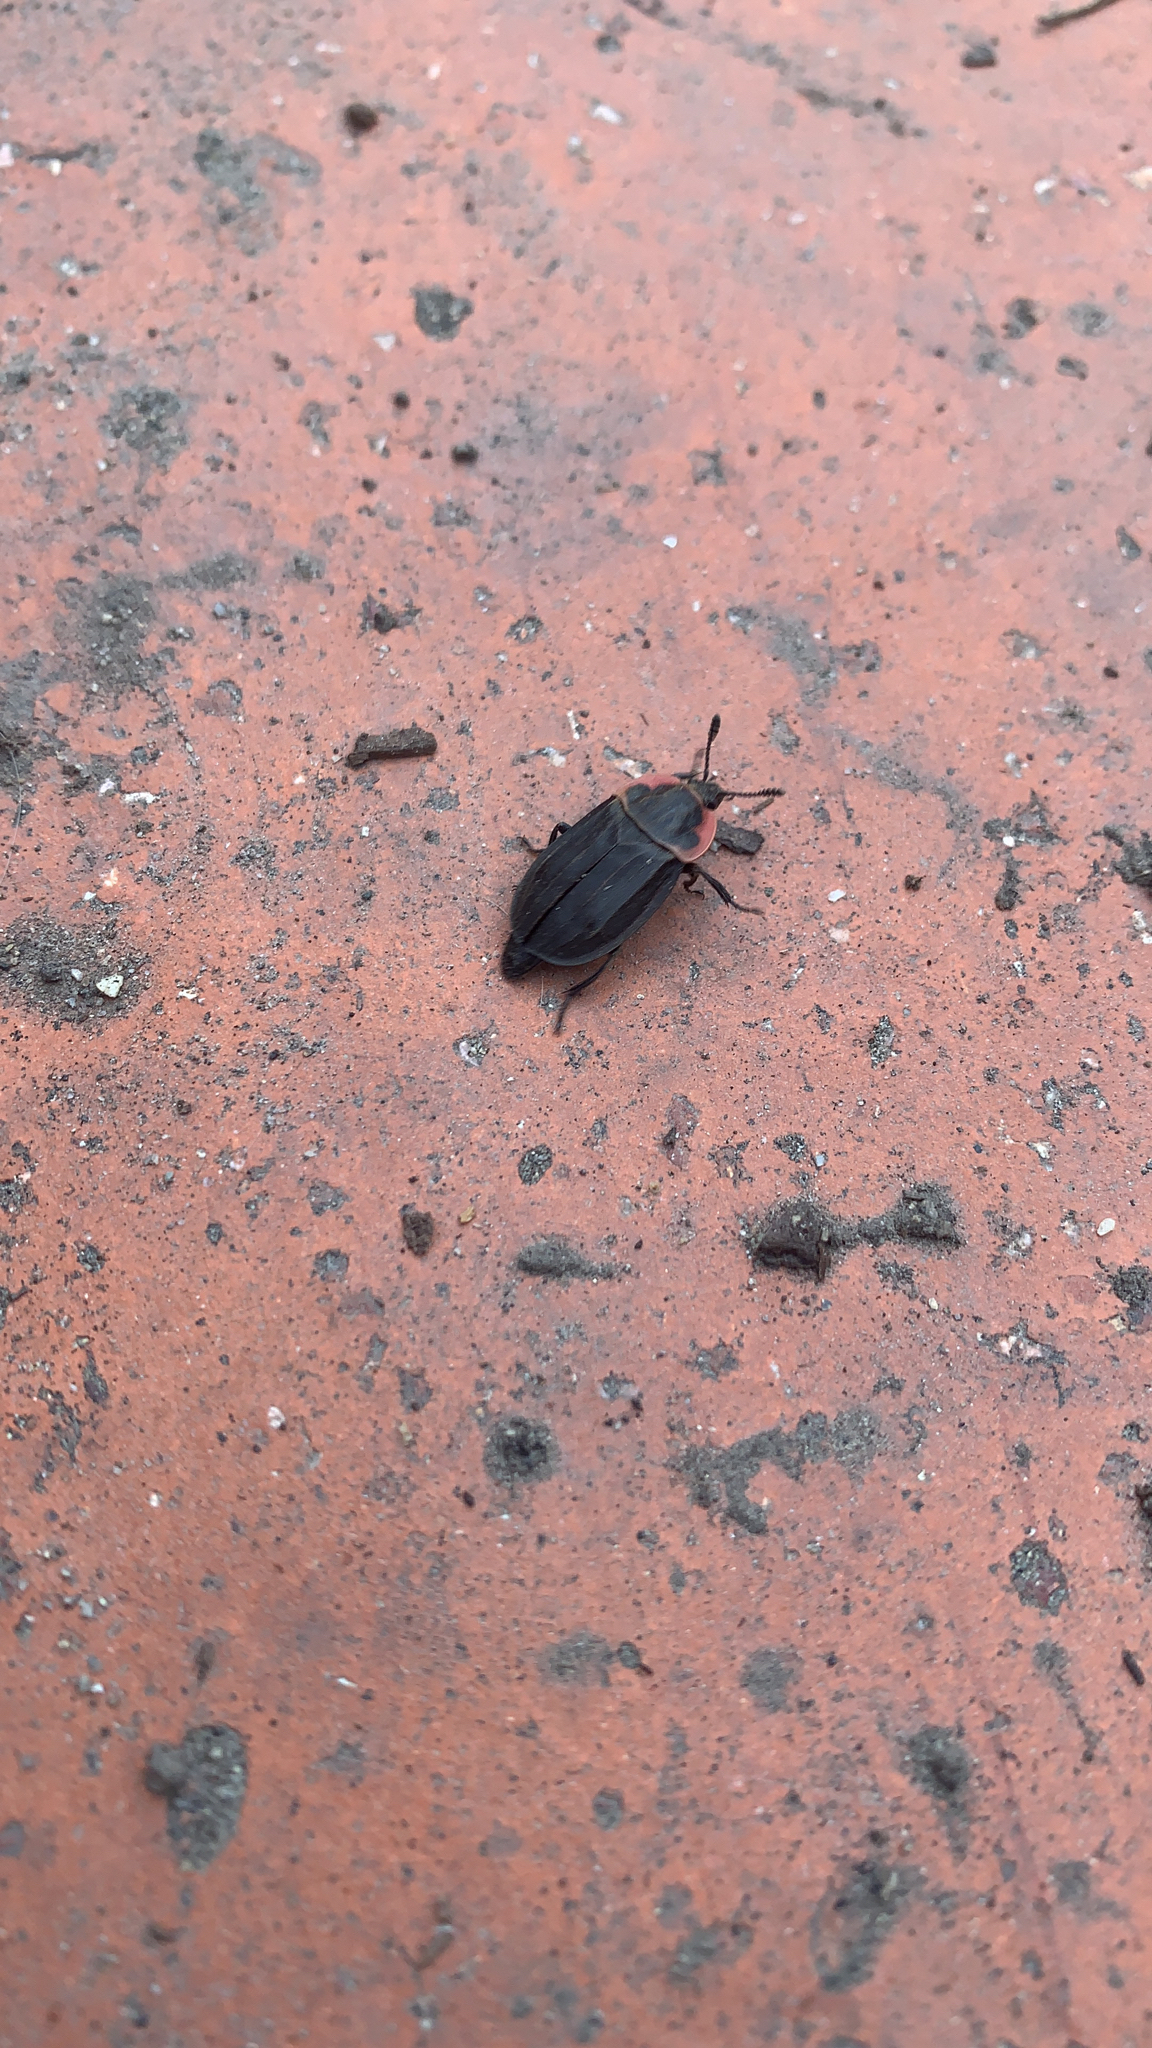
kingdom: Animalia
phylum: Arthropoda
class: Insecta
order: Coleoptera
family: Staphylinidae
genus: Oiceoptoma
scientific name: Oiceoptoma noveboracense
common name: Margined carrion beetle
